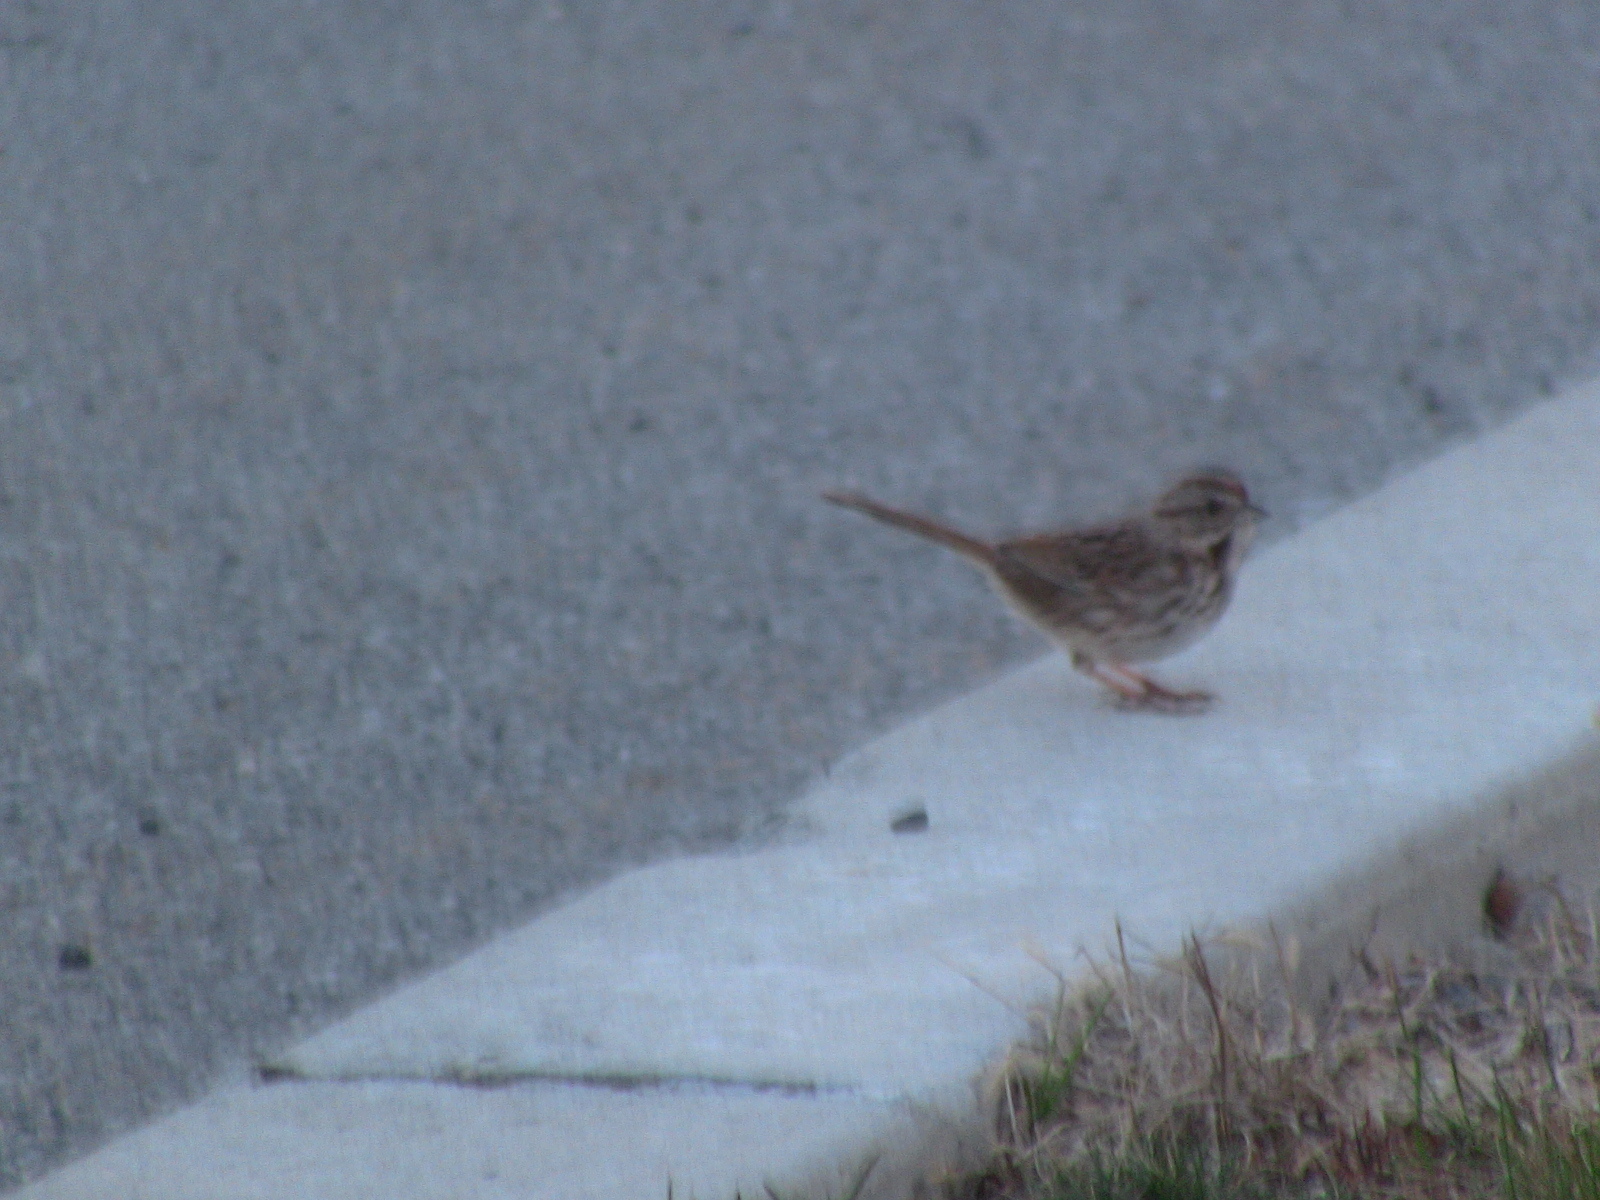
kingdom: Animalia
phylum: Chordata
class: Aves
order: Passeriformes
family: Passerellidae
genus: Melospiza
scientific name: Melospiza melodia
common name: Song sparrow
